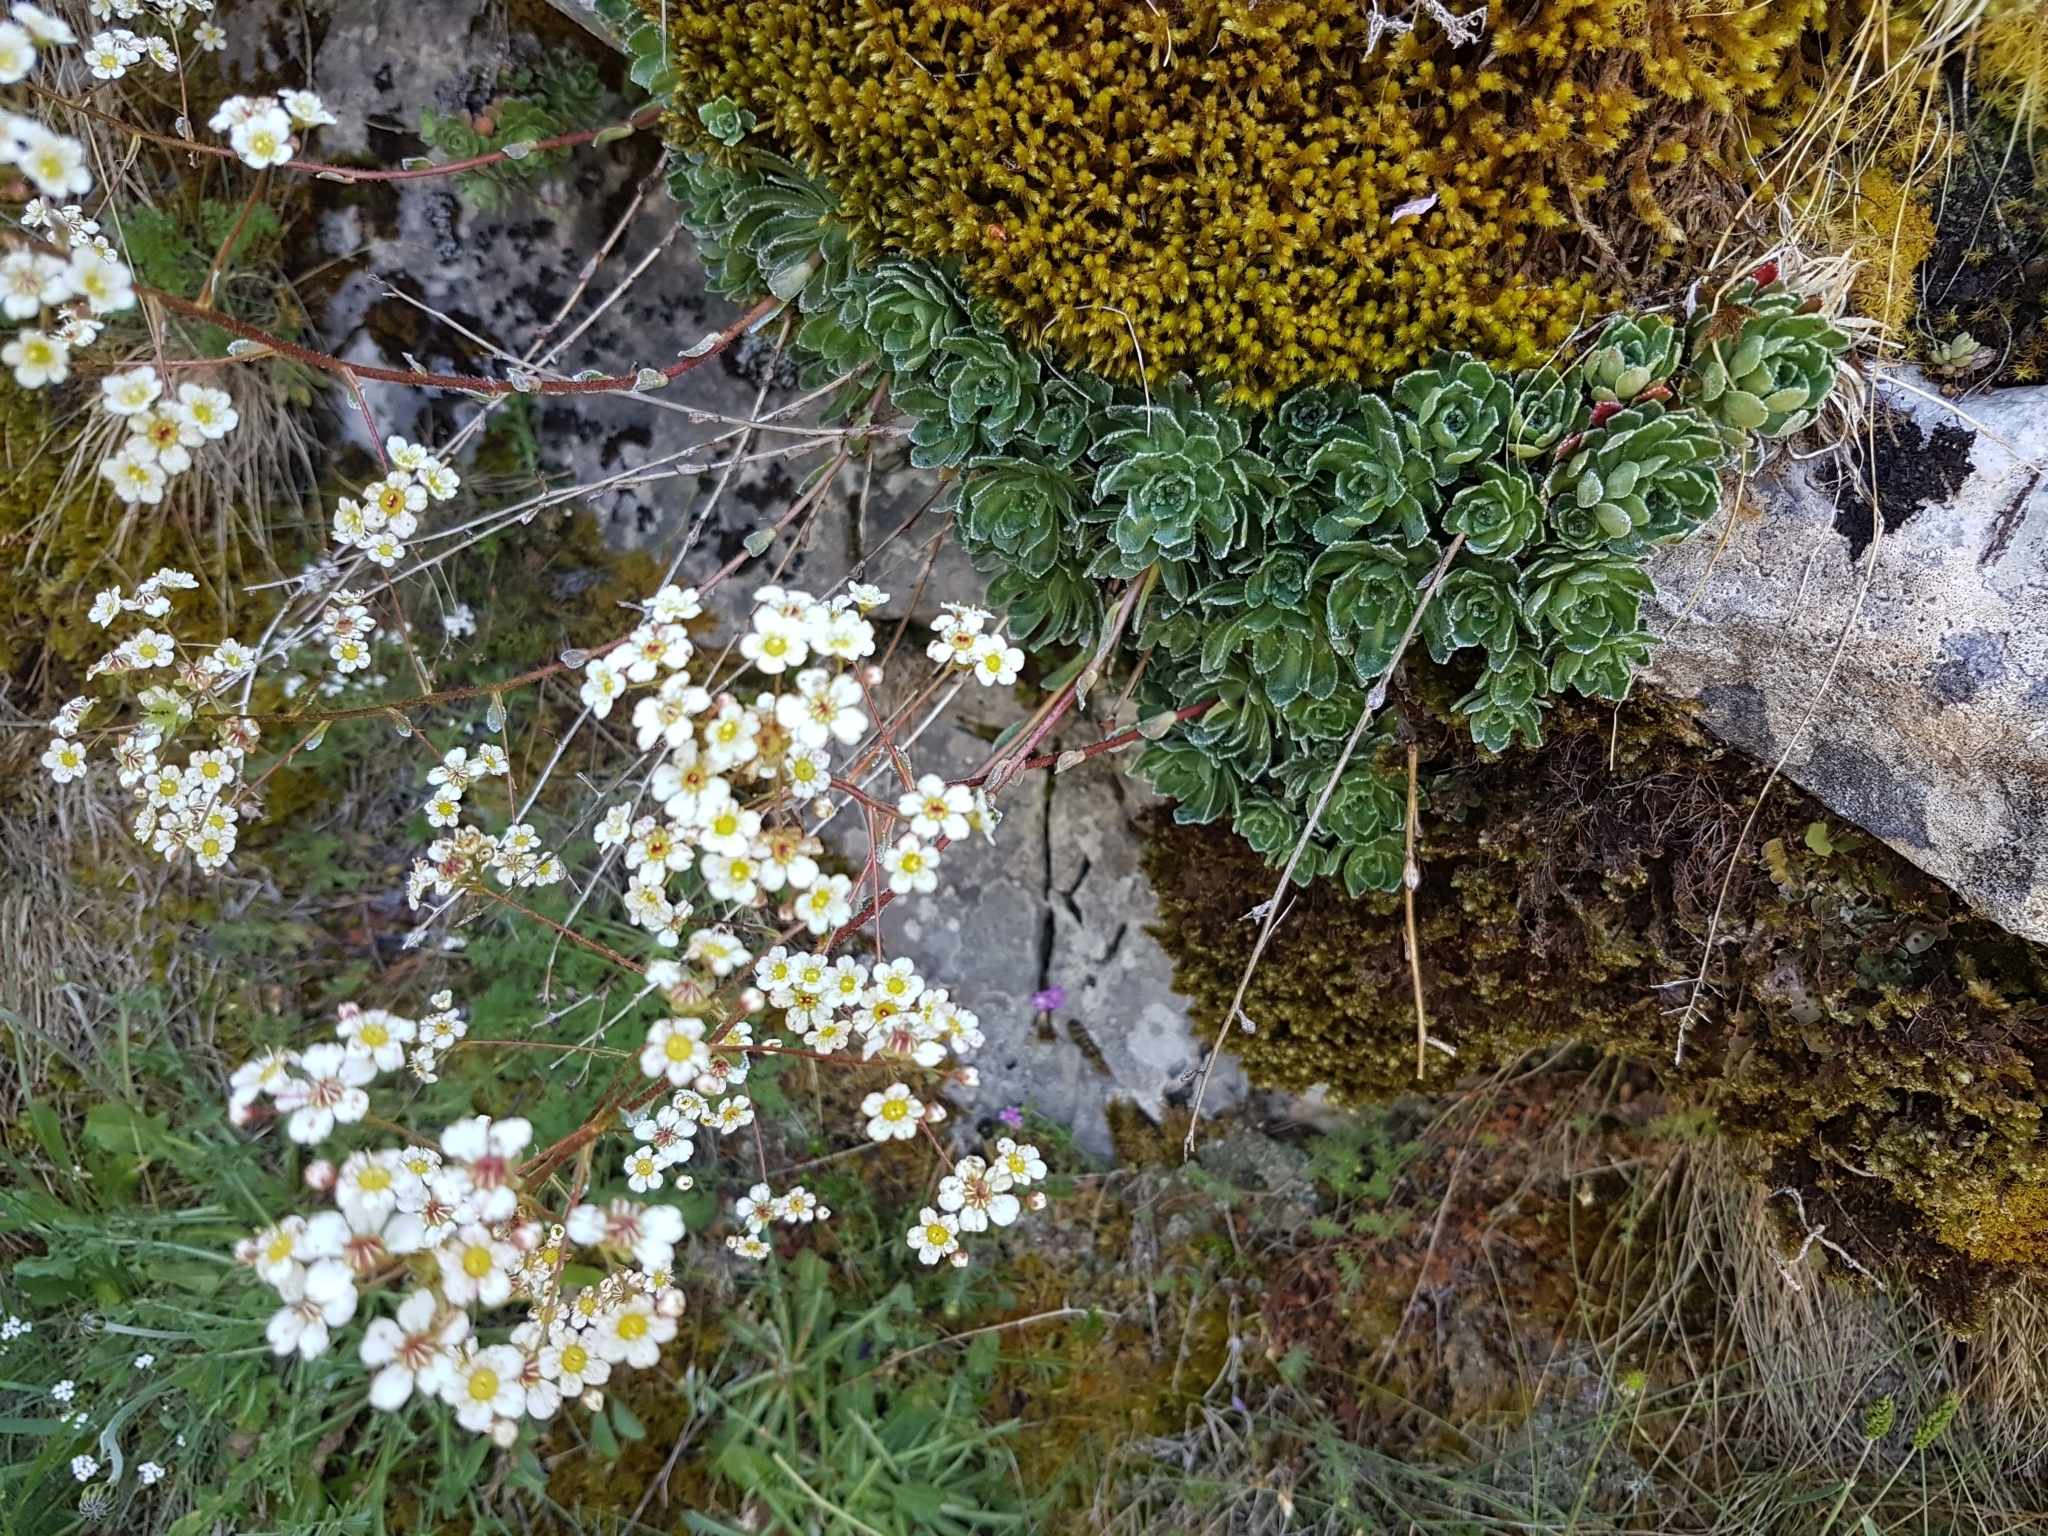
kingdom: Plantae
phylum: Tracheophyta
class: Magnoliopsida
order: Saxifragales
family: Saxifragaceae
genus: Saxifraga
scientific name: Saxifraga paniculata
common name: Livelong saxifrage
